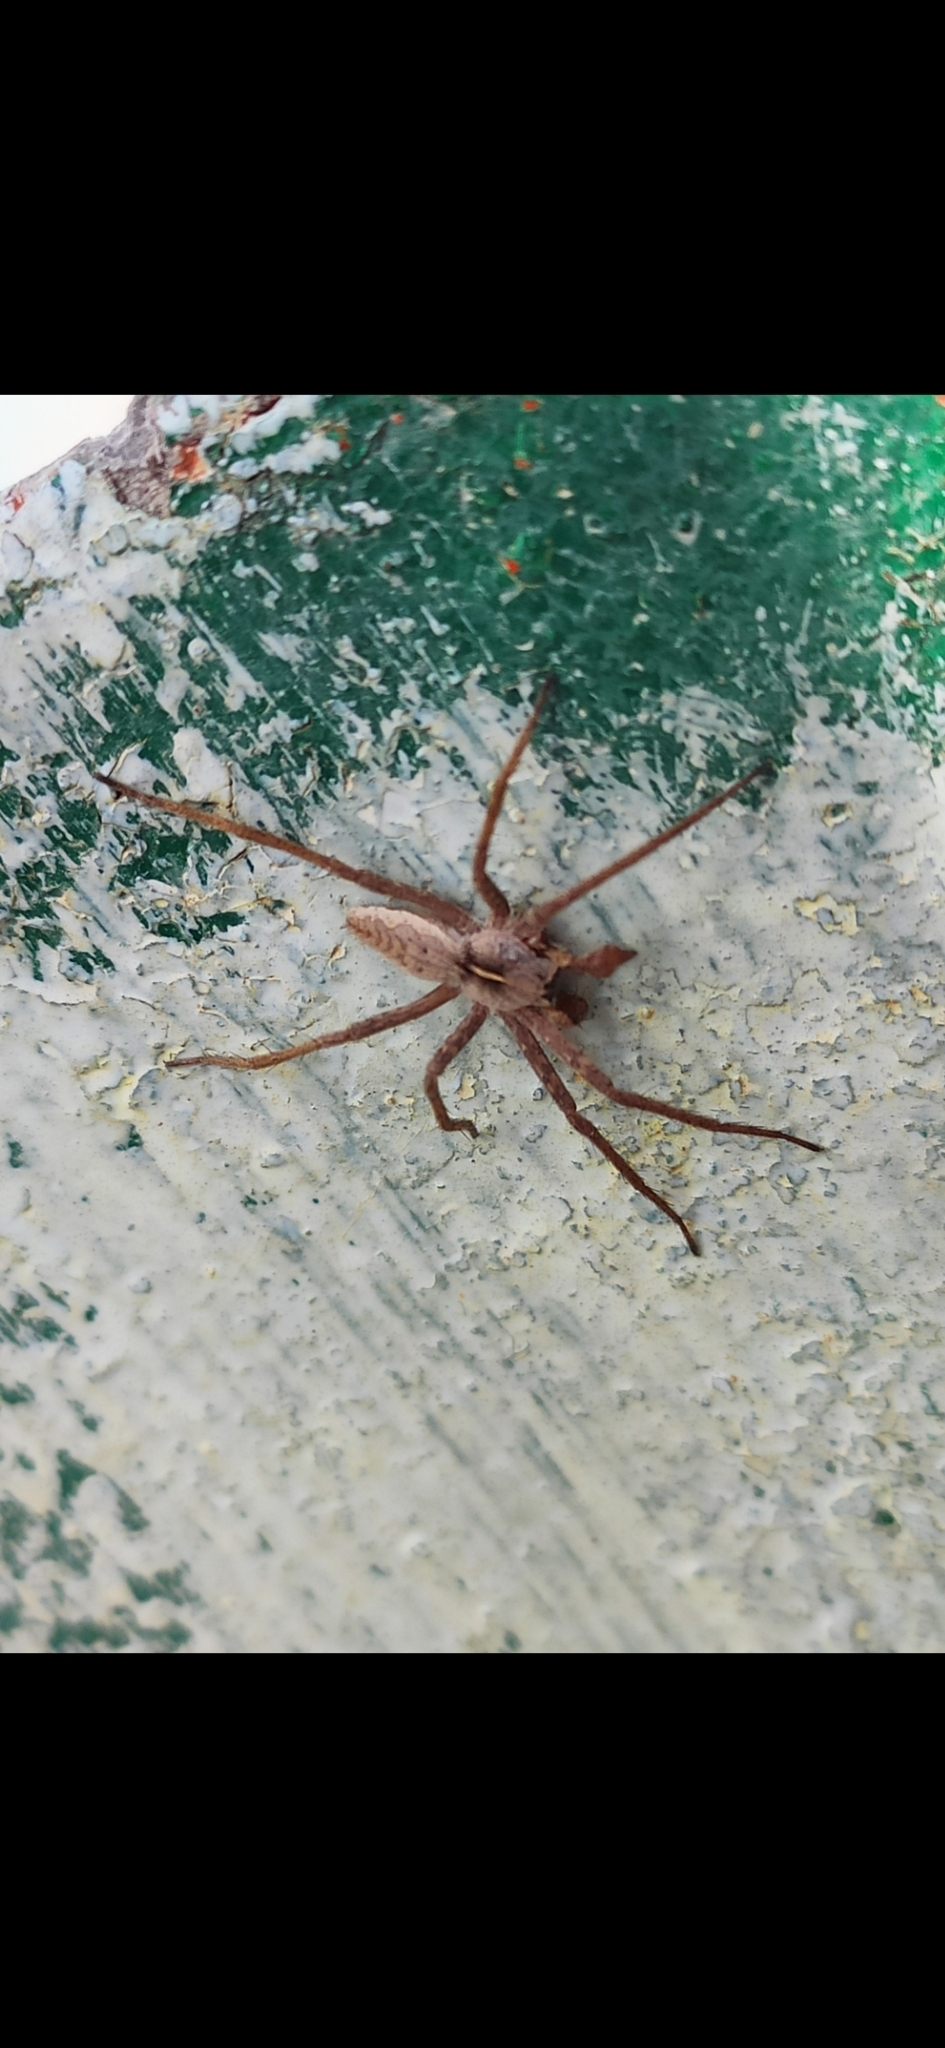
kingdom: Animalia
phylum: Arthropoda
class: Arachnida
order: Araneae
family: Pisauridae
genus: Pisaura
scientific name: Pisaura
